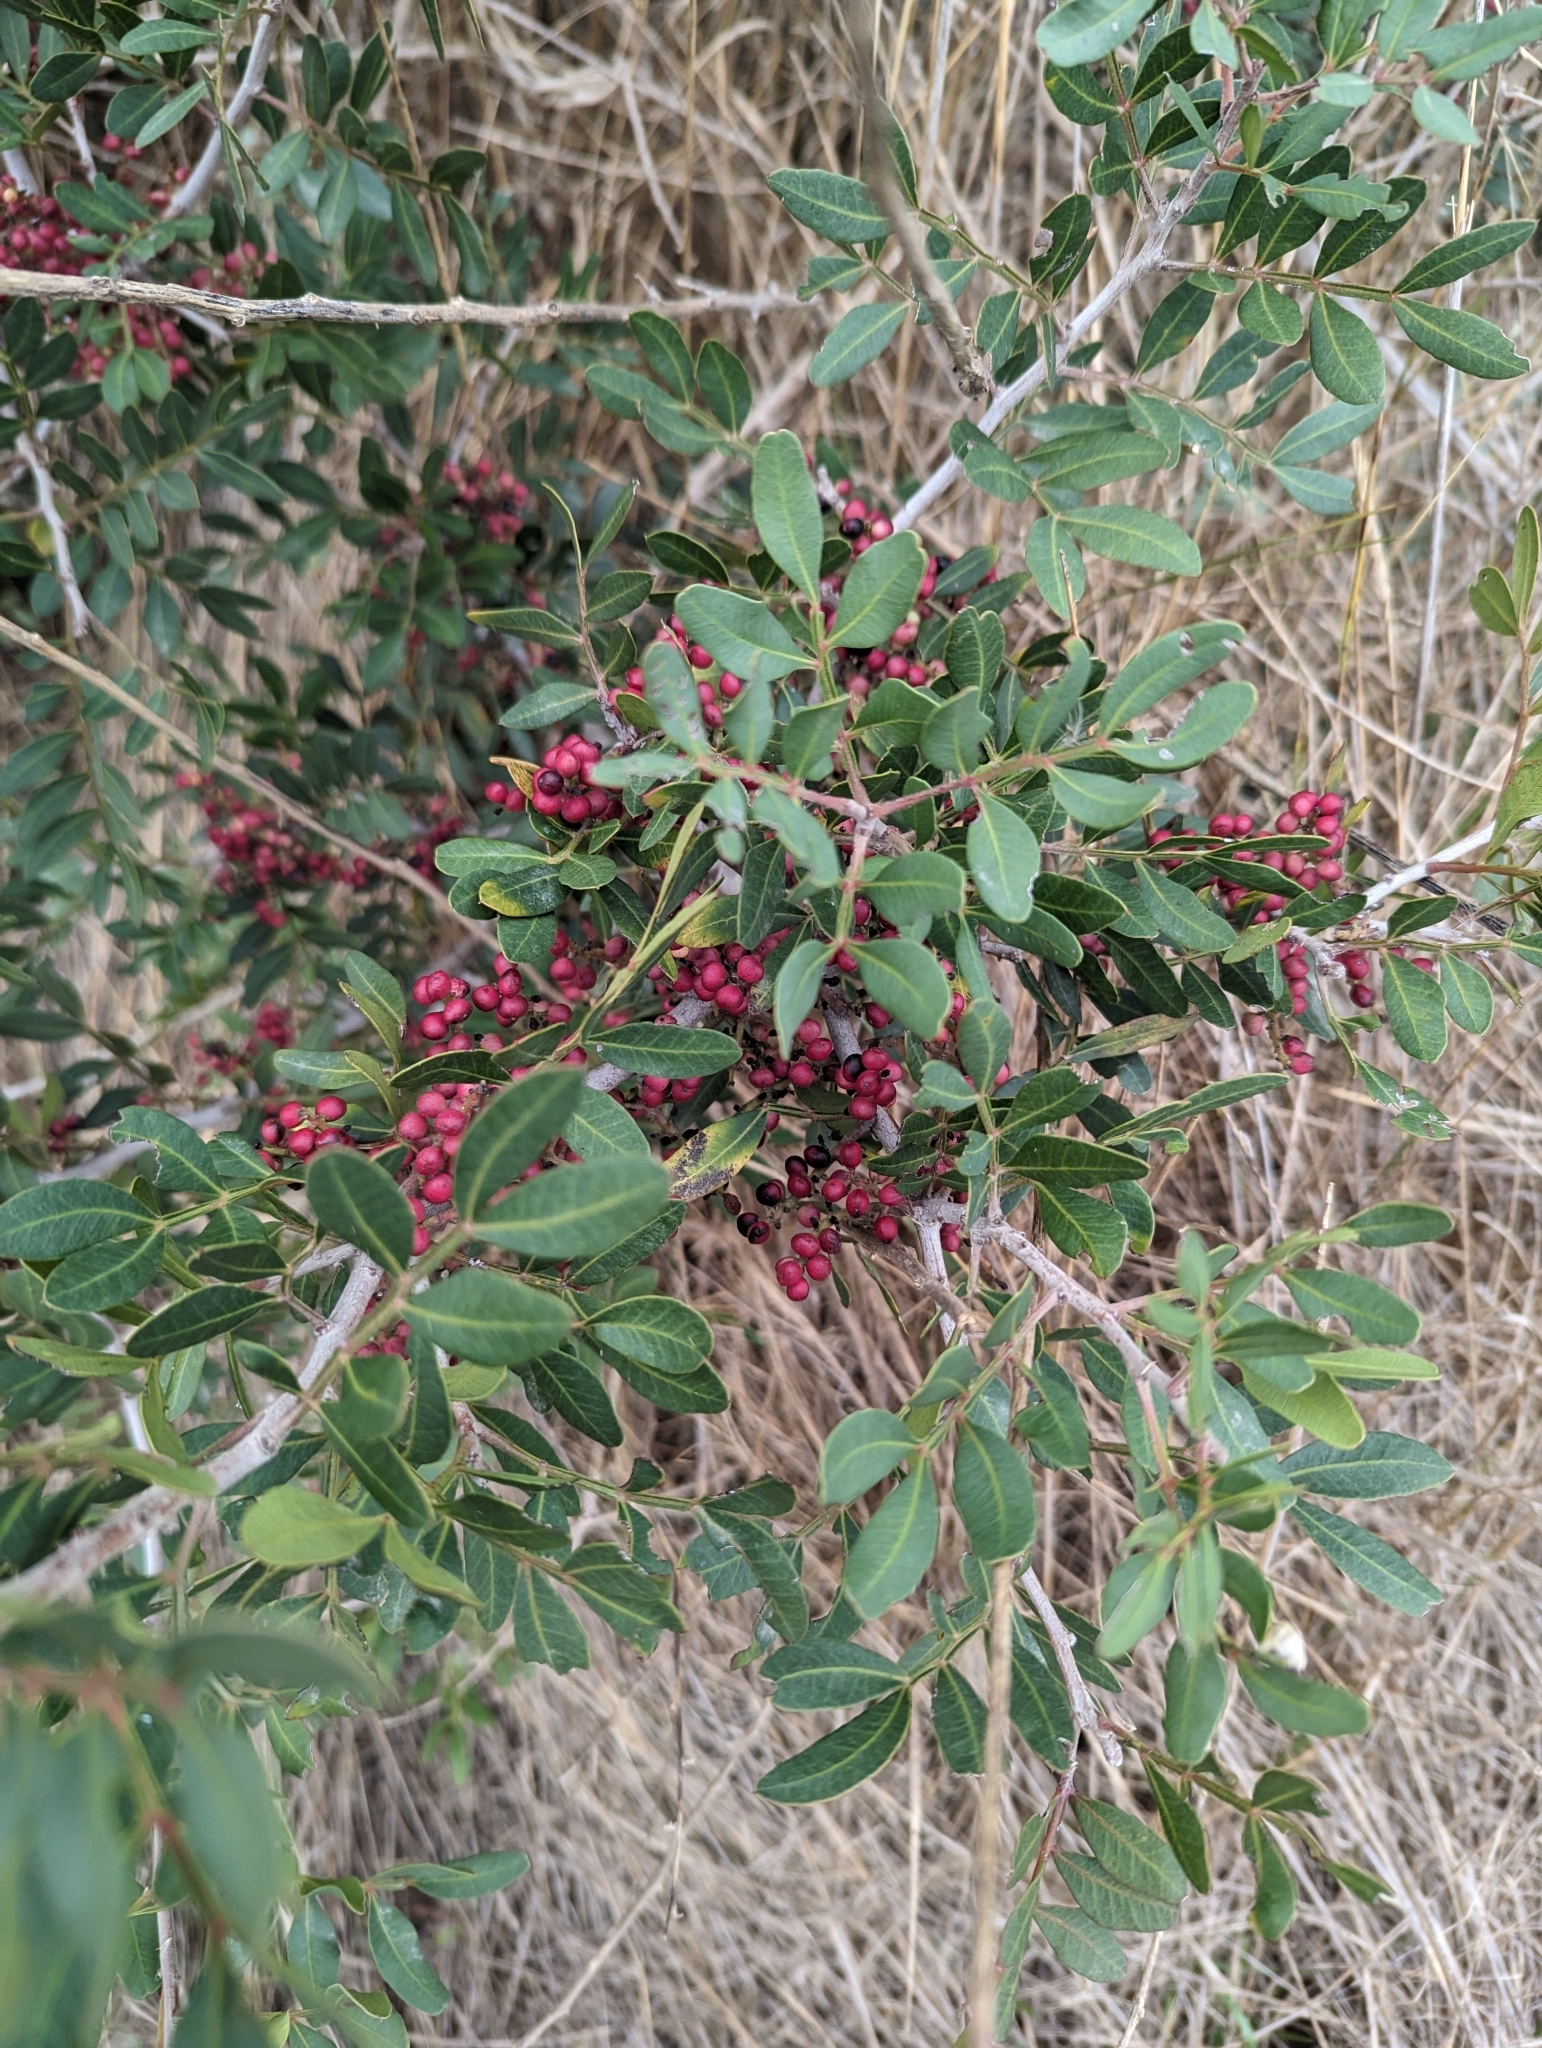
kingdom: Plantae
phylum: Tracheophyta
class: Magnoliopsida
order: Sapindales
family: Anacardiaceae
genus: Pistacia
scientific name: Pistacia lentiscus
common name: Lentisk
